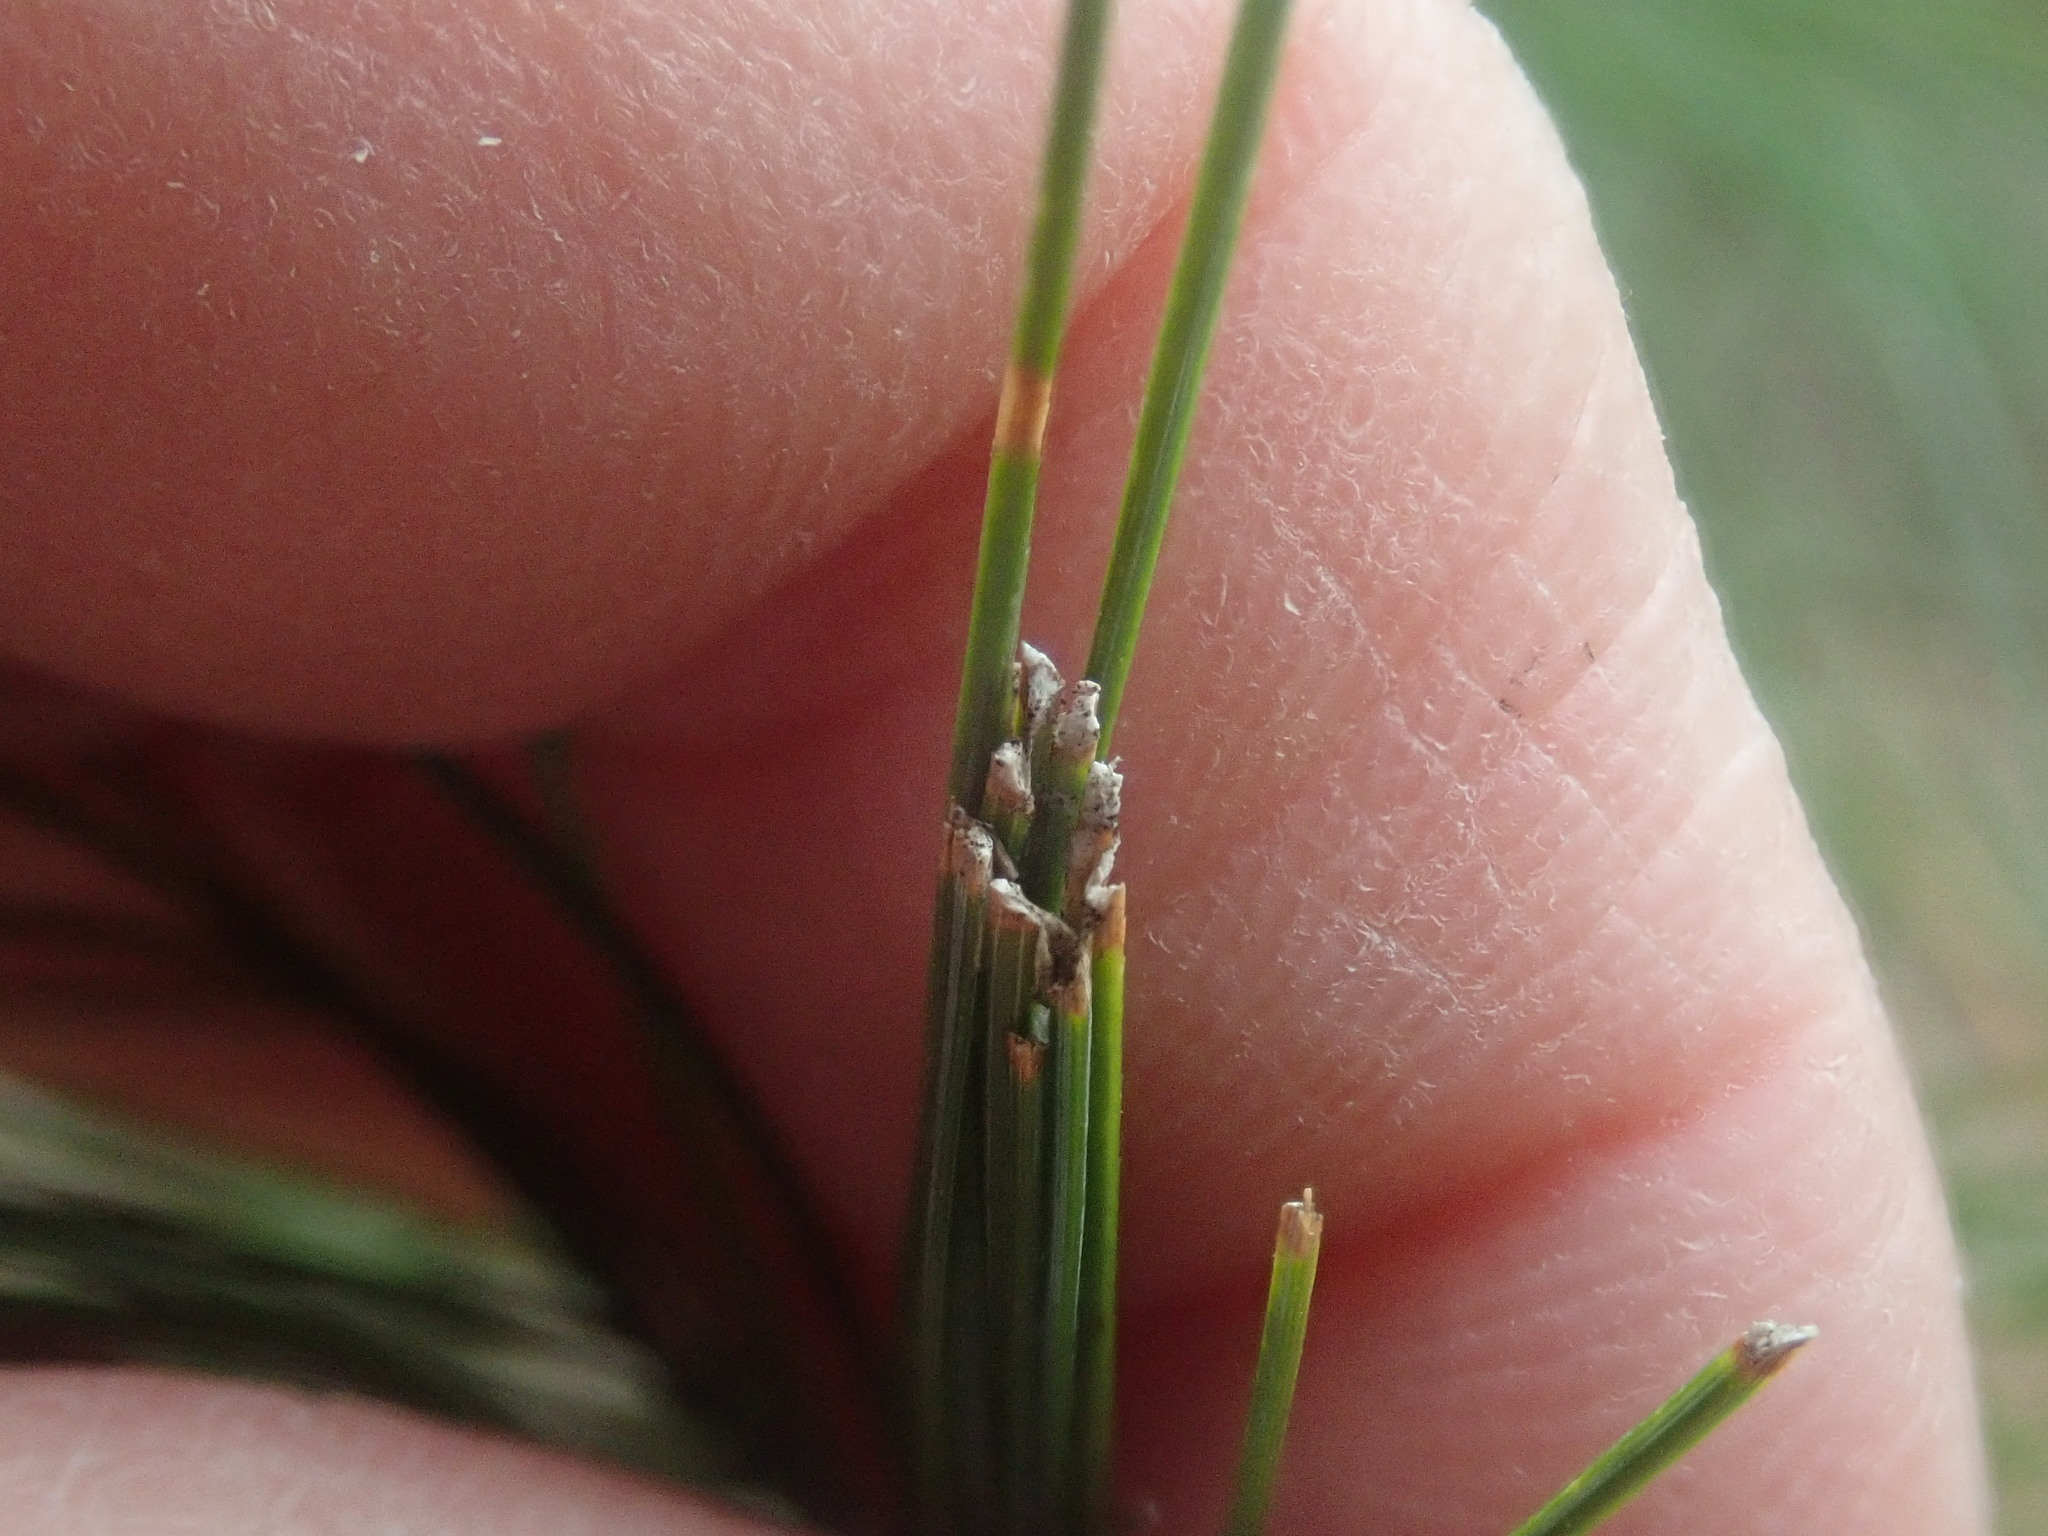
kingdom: Animalia
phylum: Arthropoda
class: Insecta
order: Lepidoptera
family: Tortricidae
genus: Argyrotaenia
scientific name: Argyrotaenia pinatubana
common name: Pine tube moth
